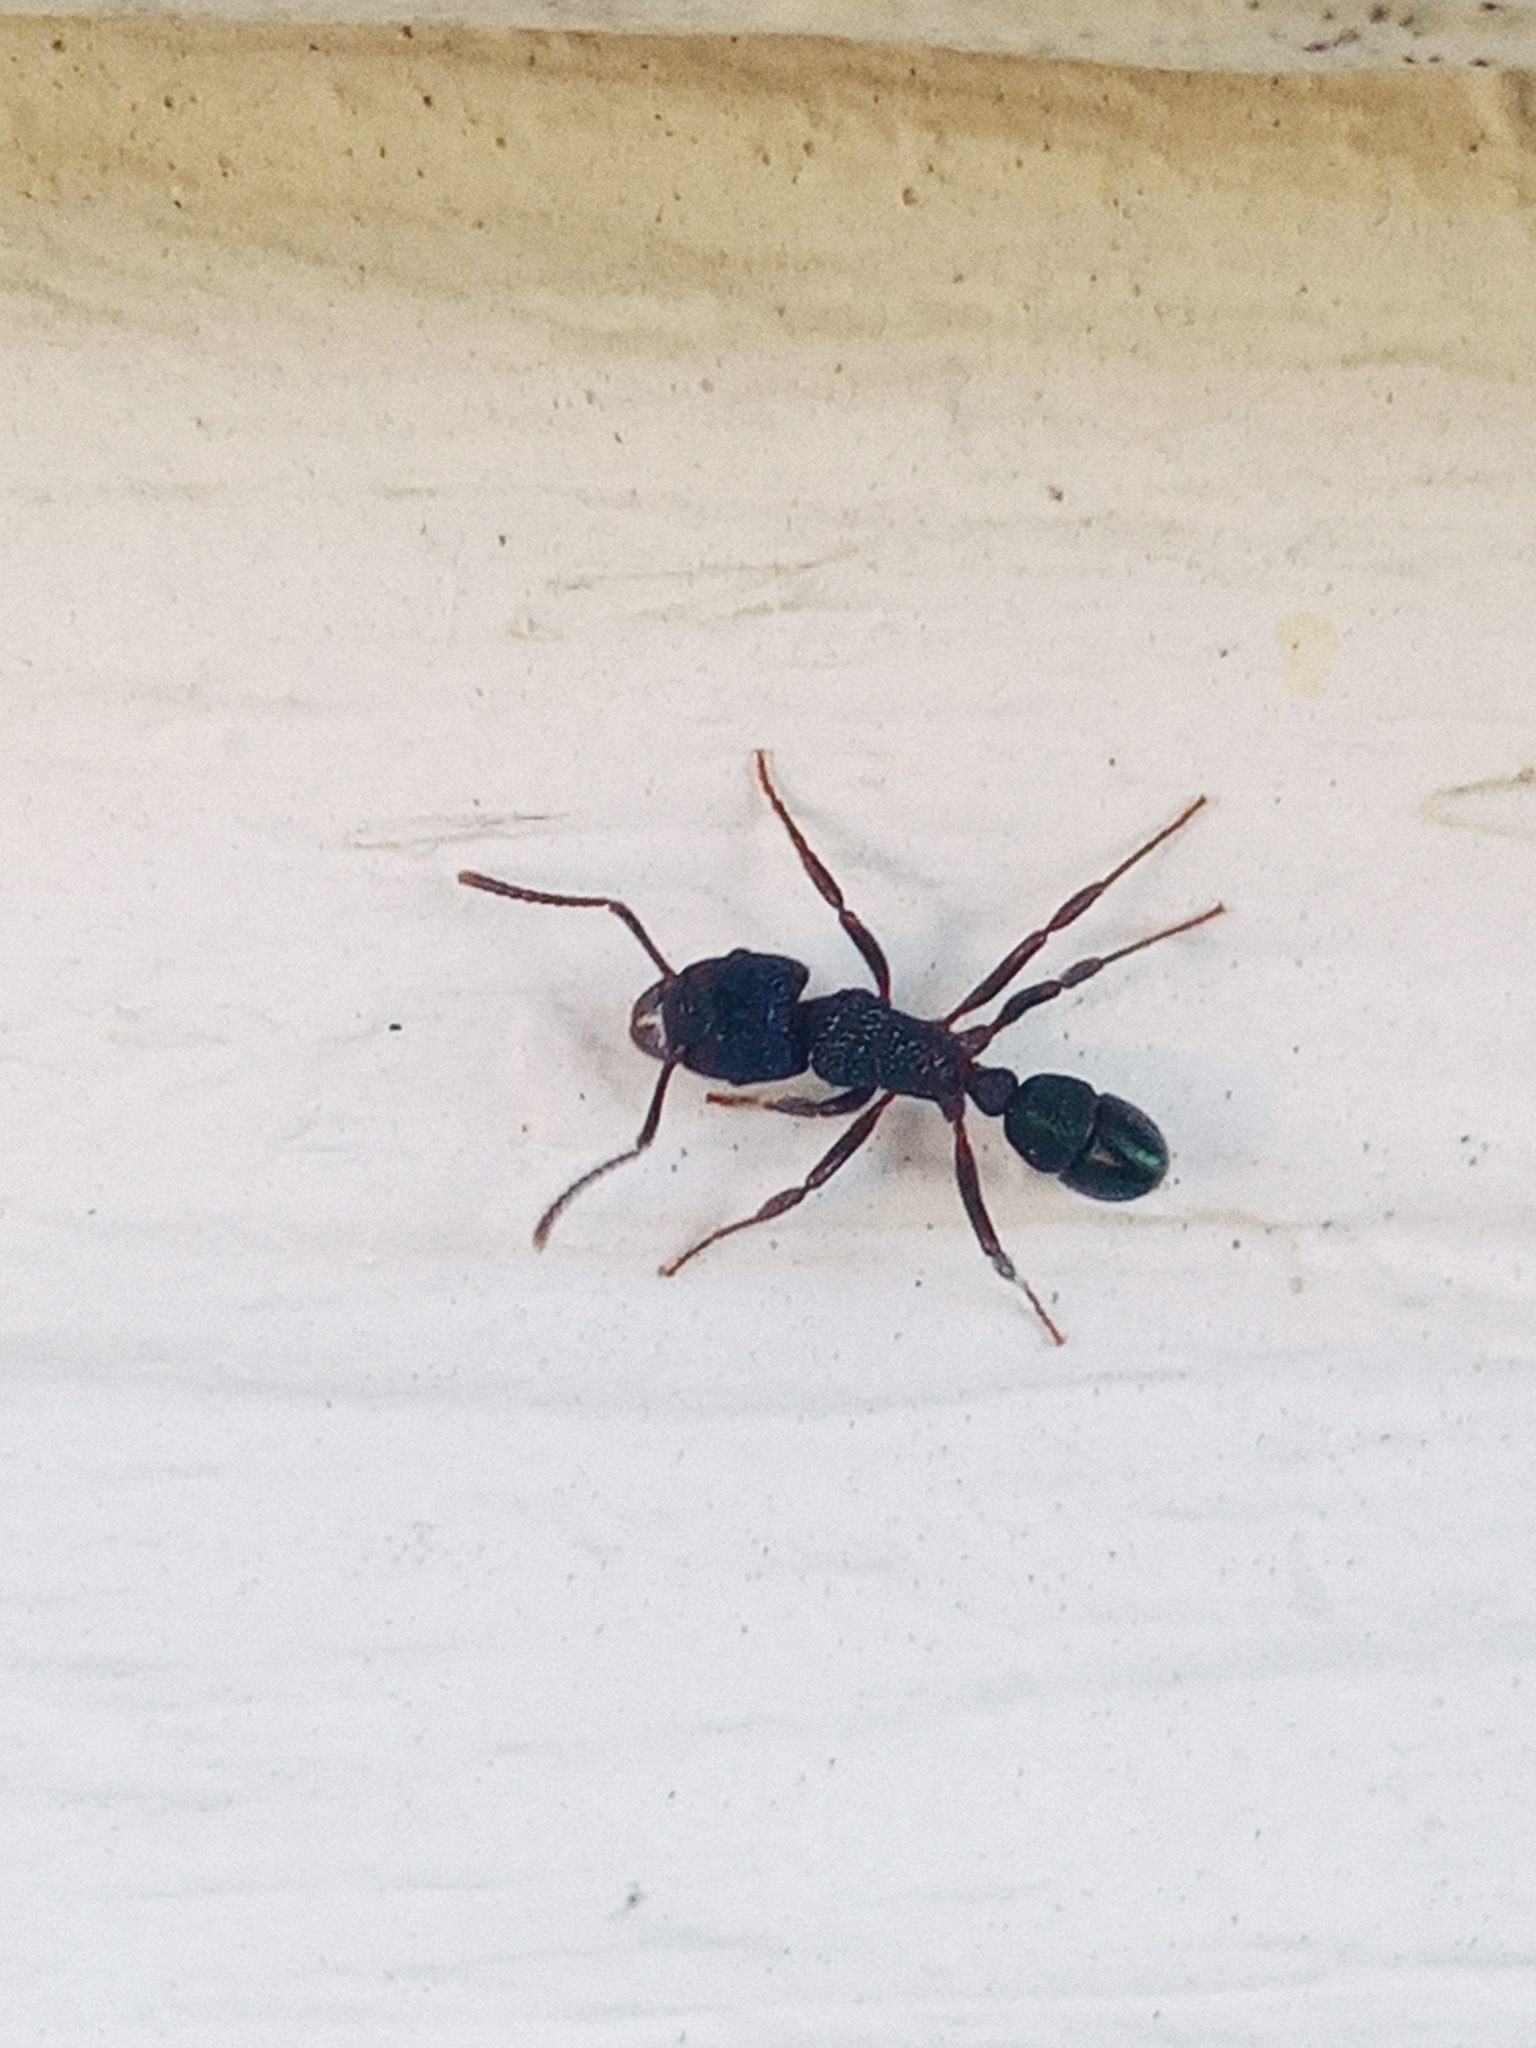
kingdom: Animalia
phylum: Arthropoda
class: Insecta
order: Hymenoptera
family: Formicidae
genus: Rhytidoponera
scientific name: Rhytidoponera metallica
